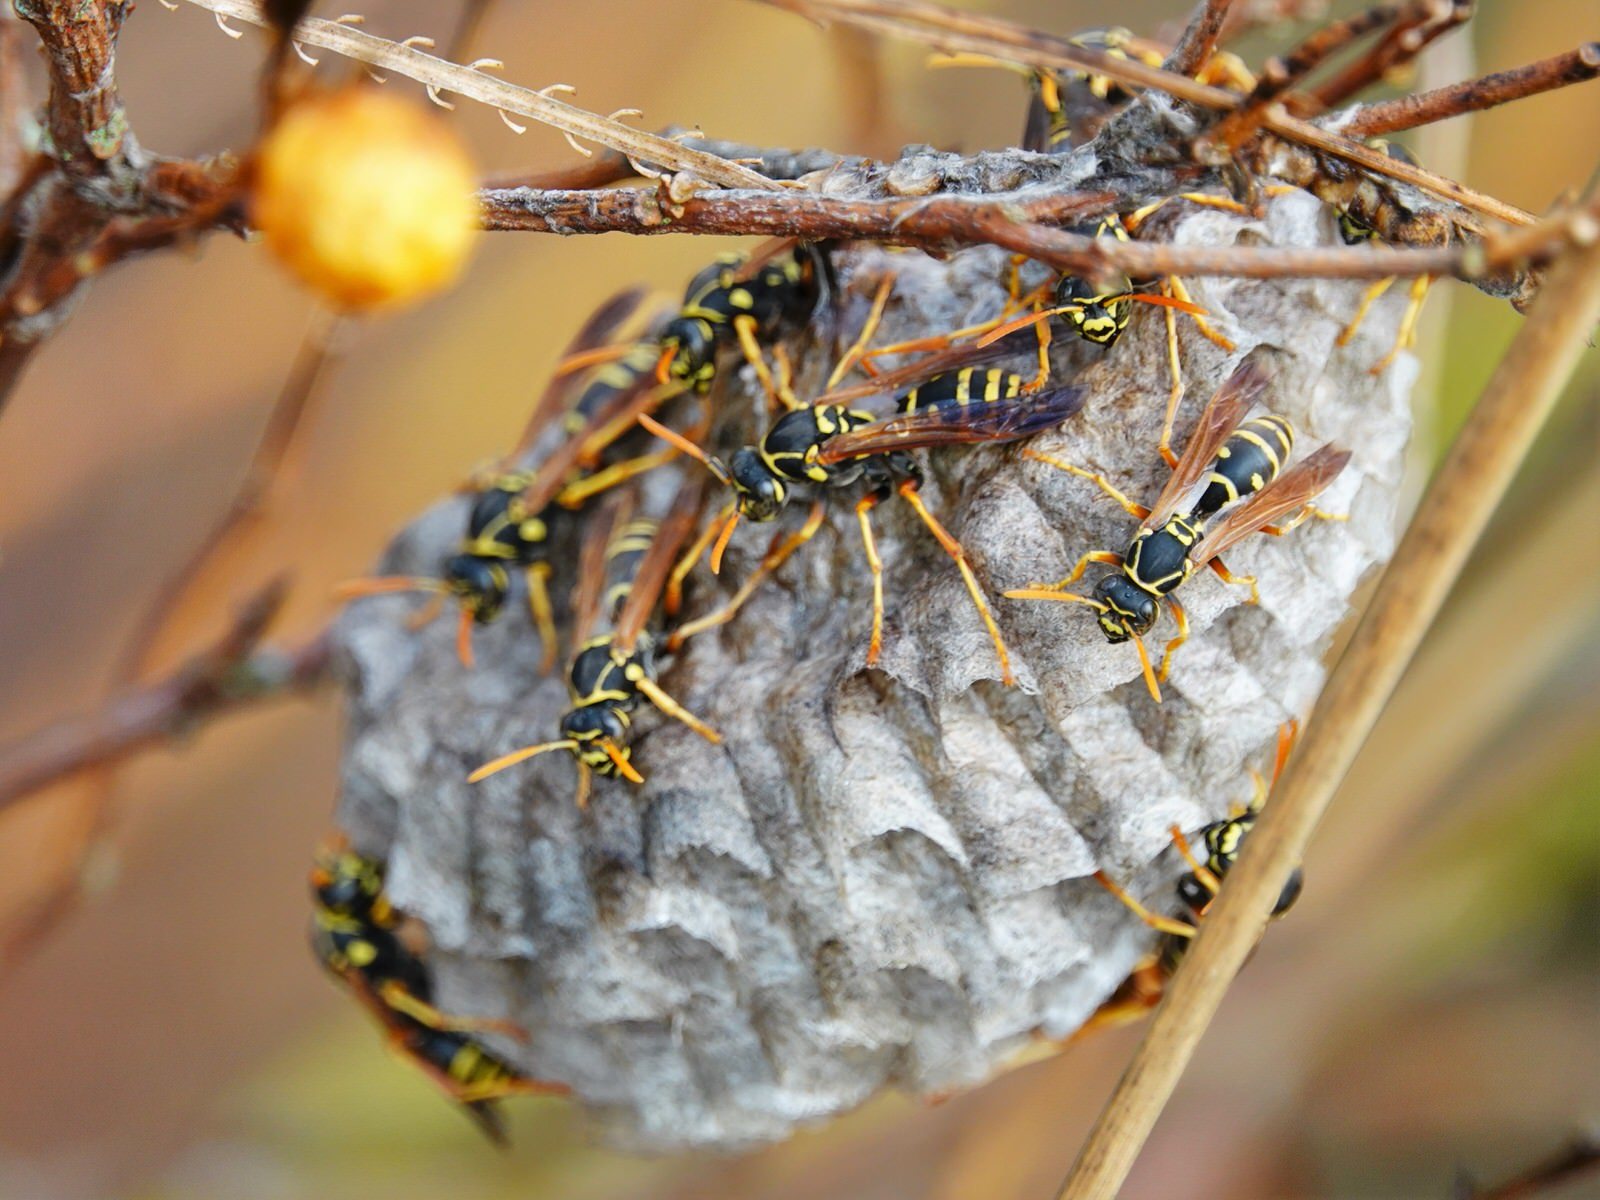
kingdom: Animalia
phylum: Arthropoda
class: Insecta
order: Hymenoptera
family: Eumenidae
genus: Polistes
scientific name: Polistes chinensis
